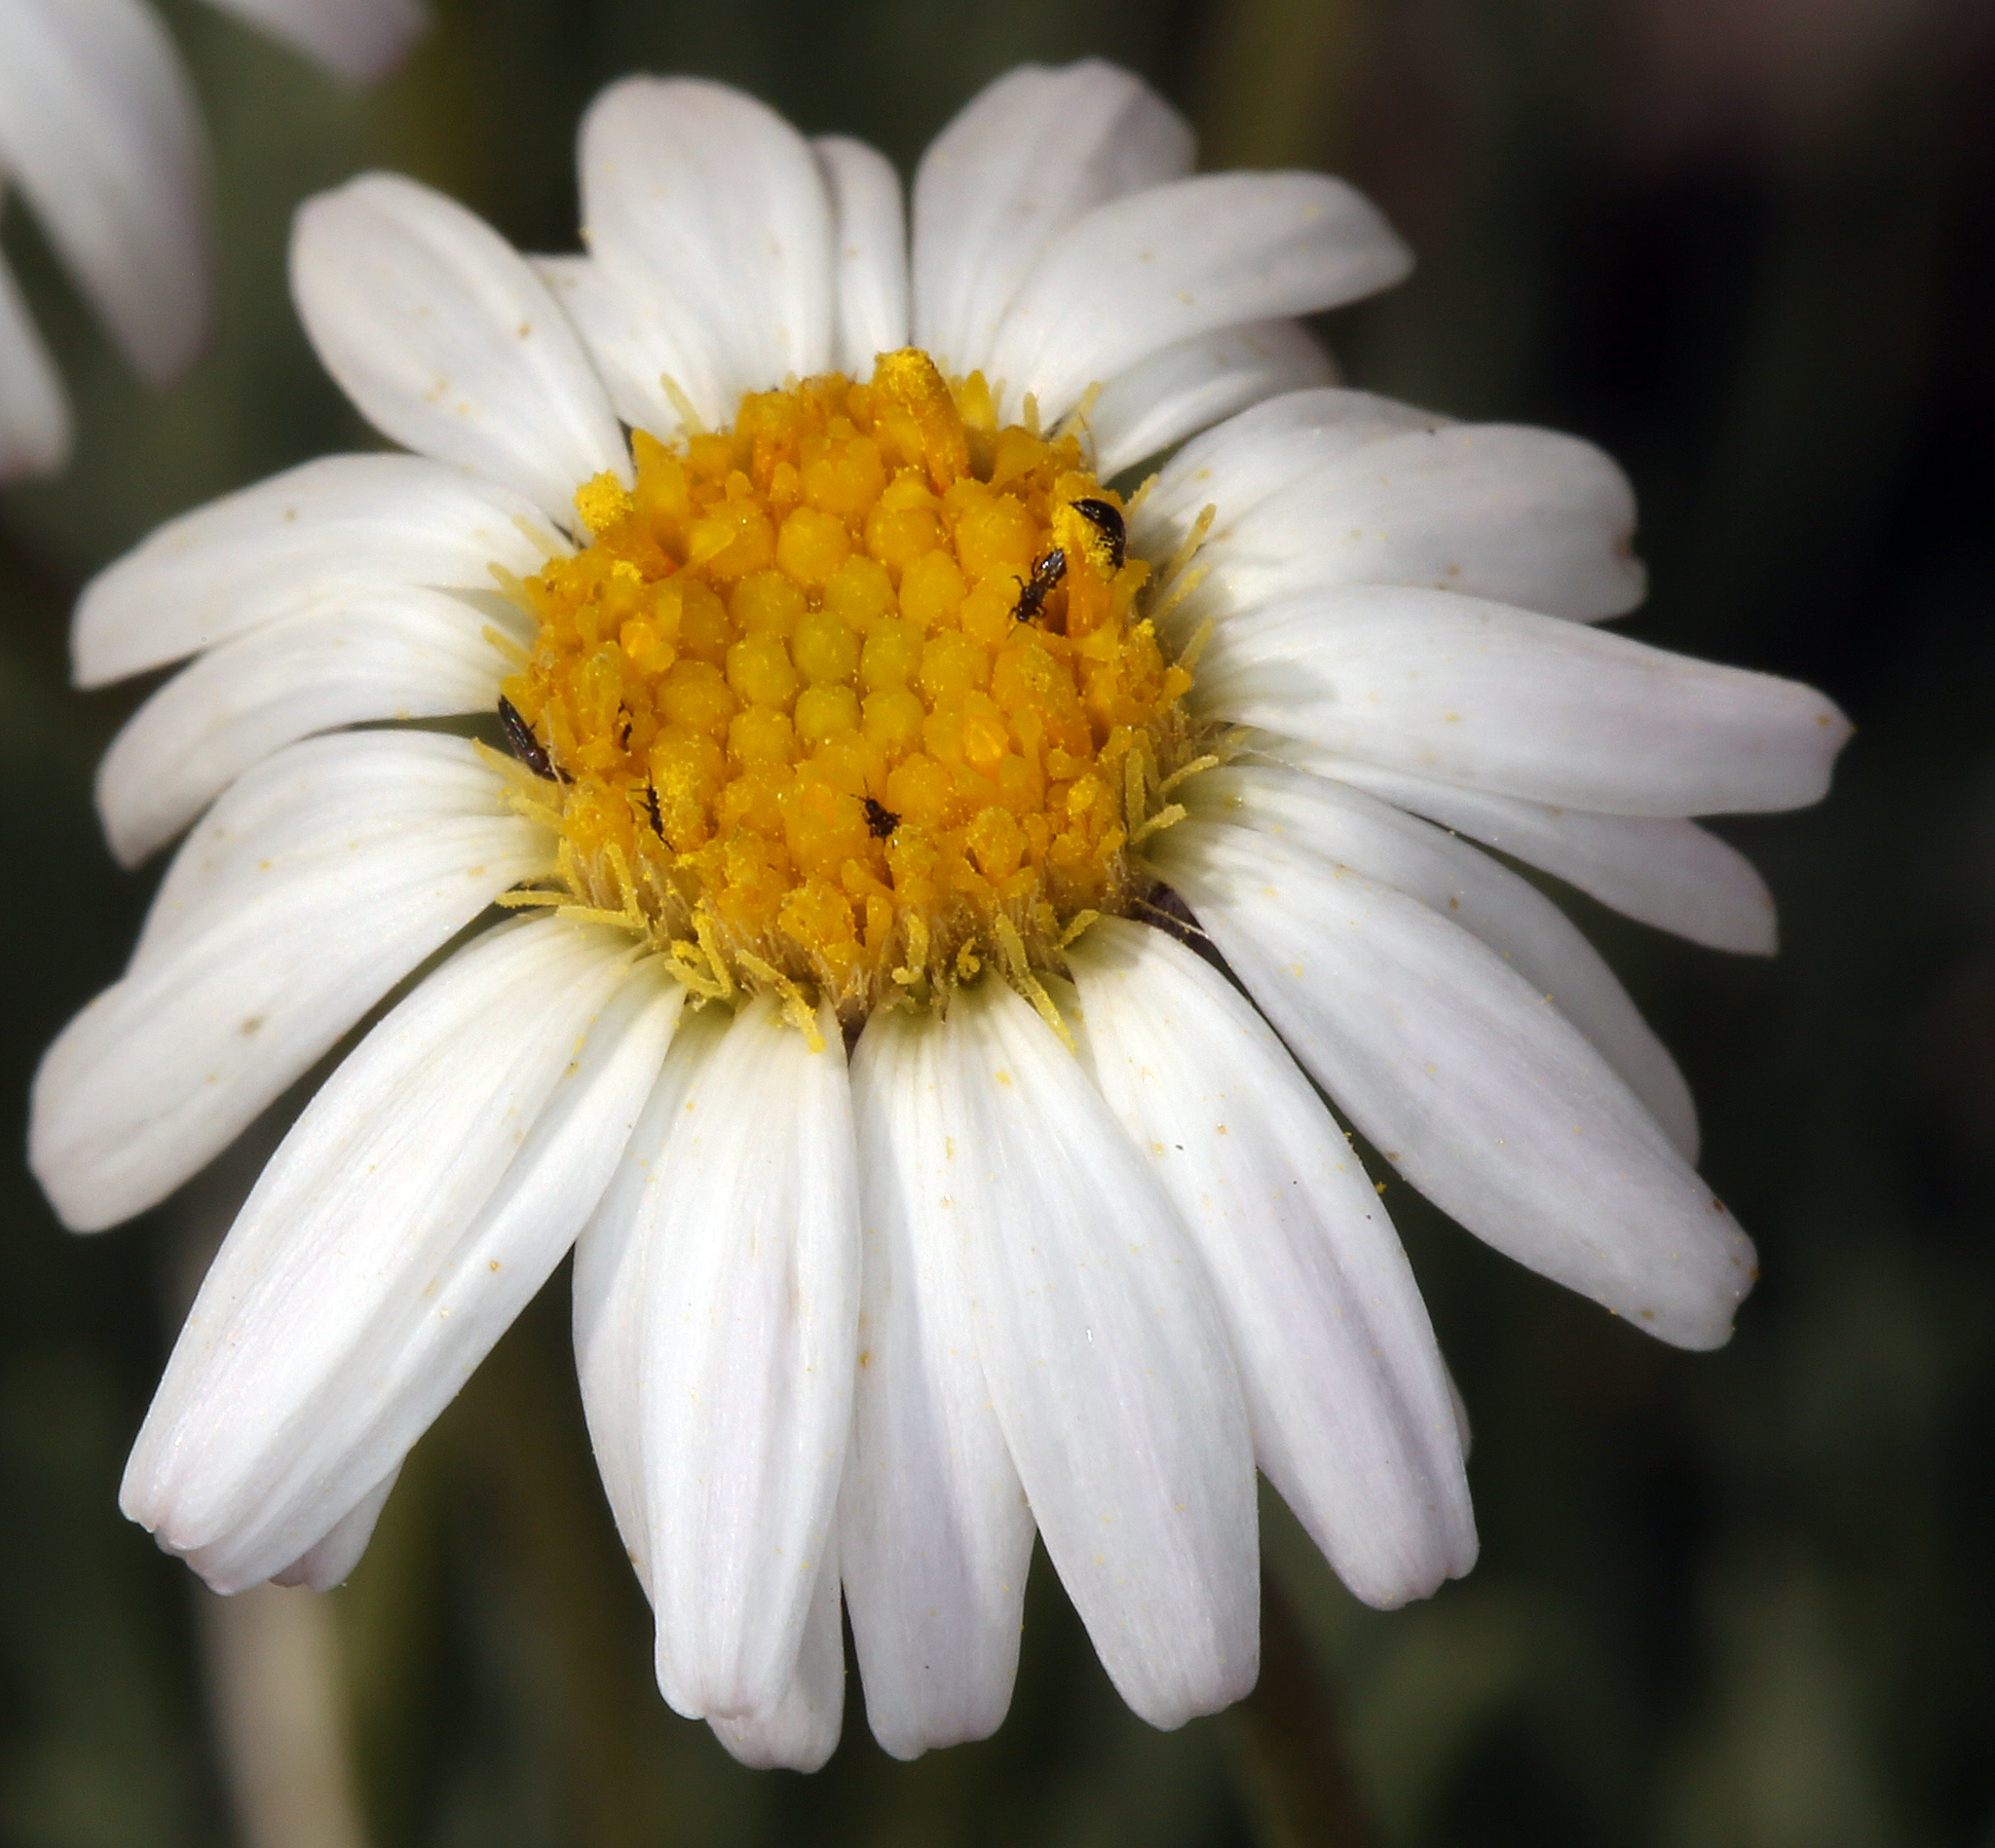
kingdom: Plantae
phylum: Tracheophyta
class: Magnoliopsida
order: Asterales
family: Asteraceae
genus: Erigeron
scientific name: Erigeron compactus
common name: Fern-leaf fleabane
